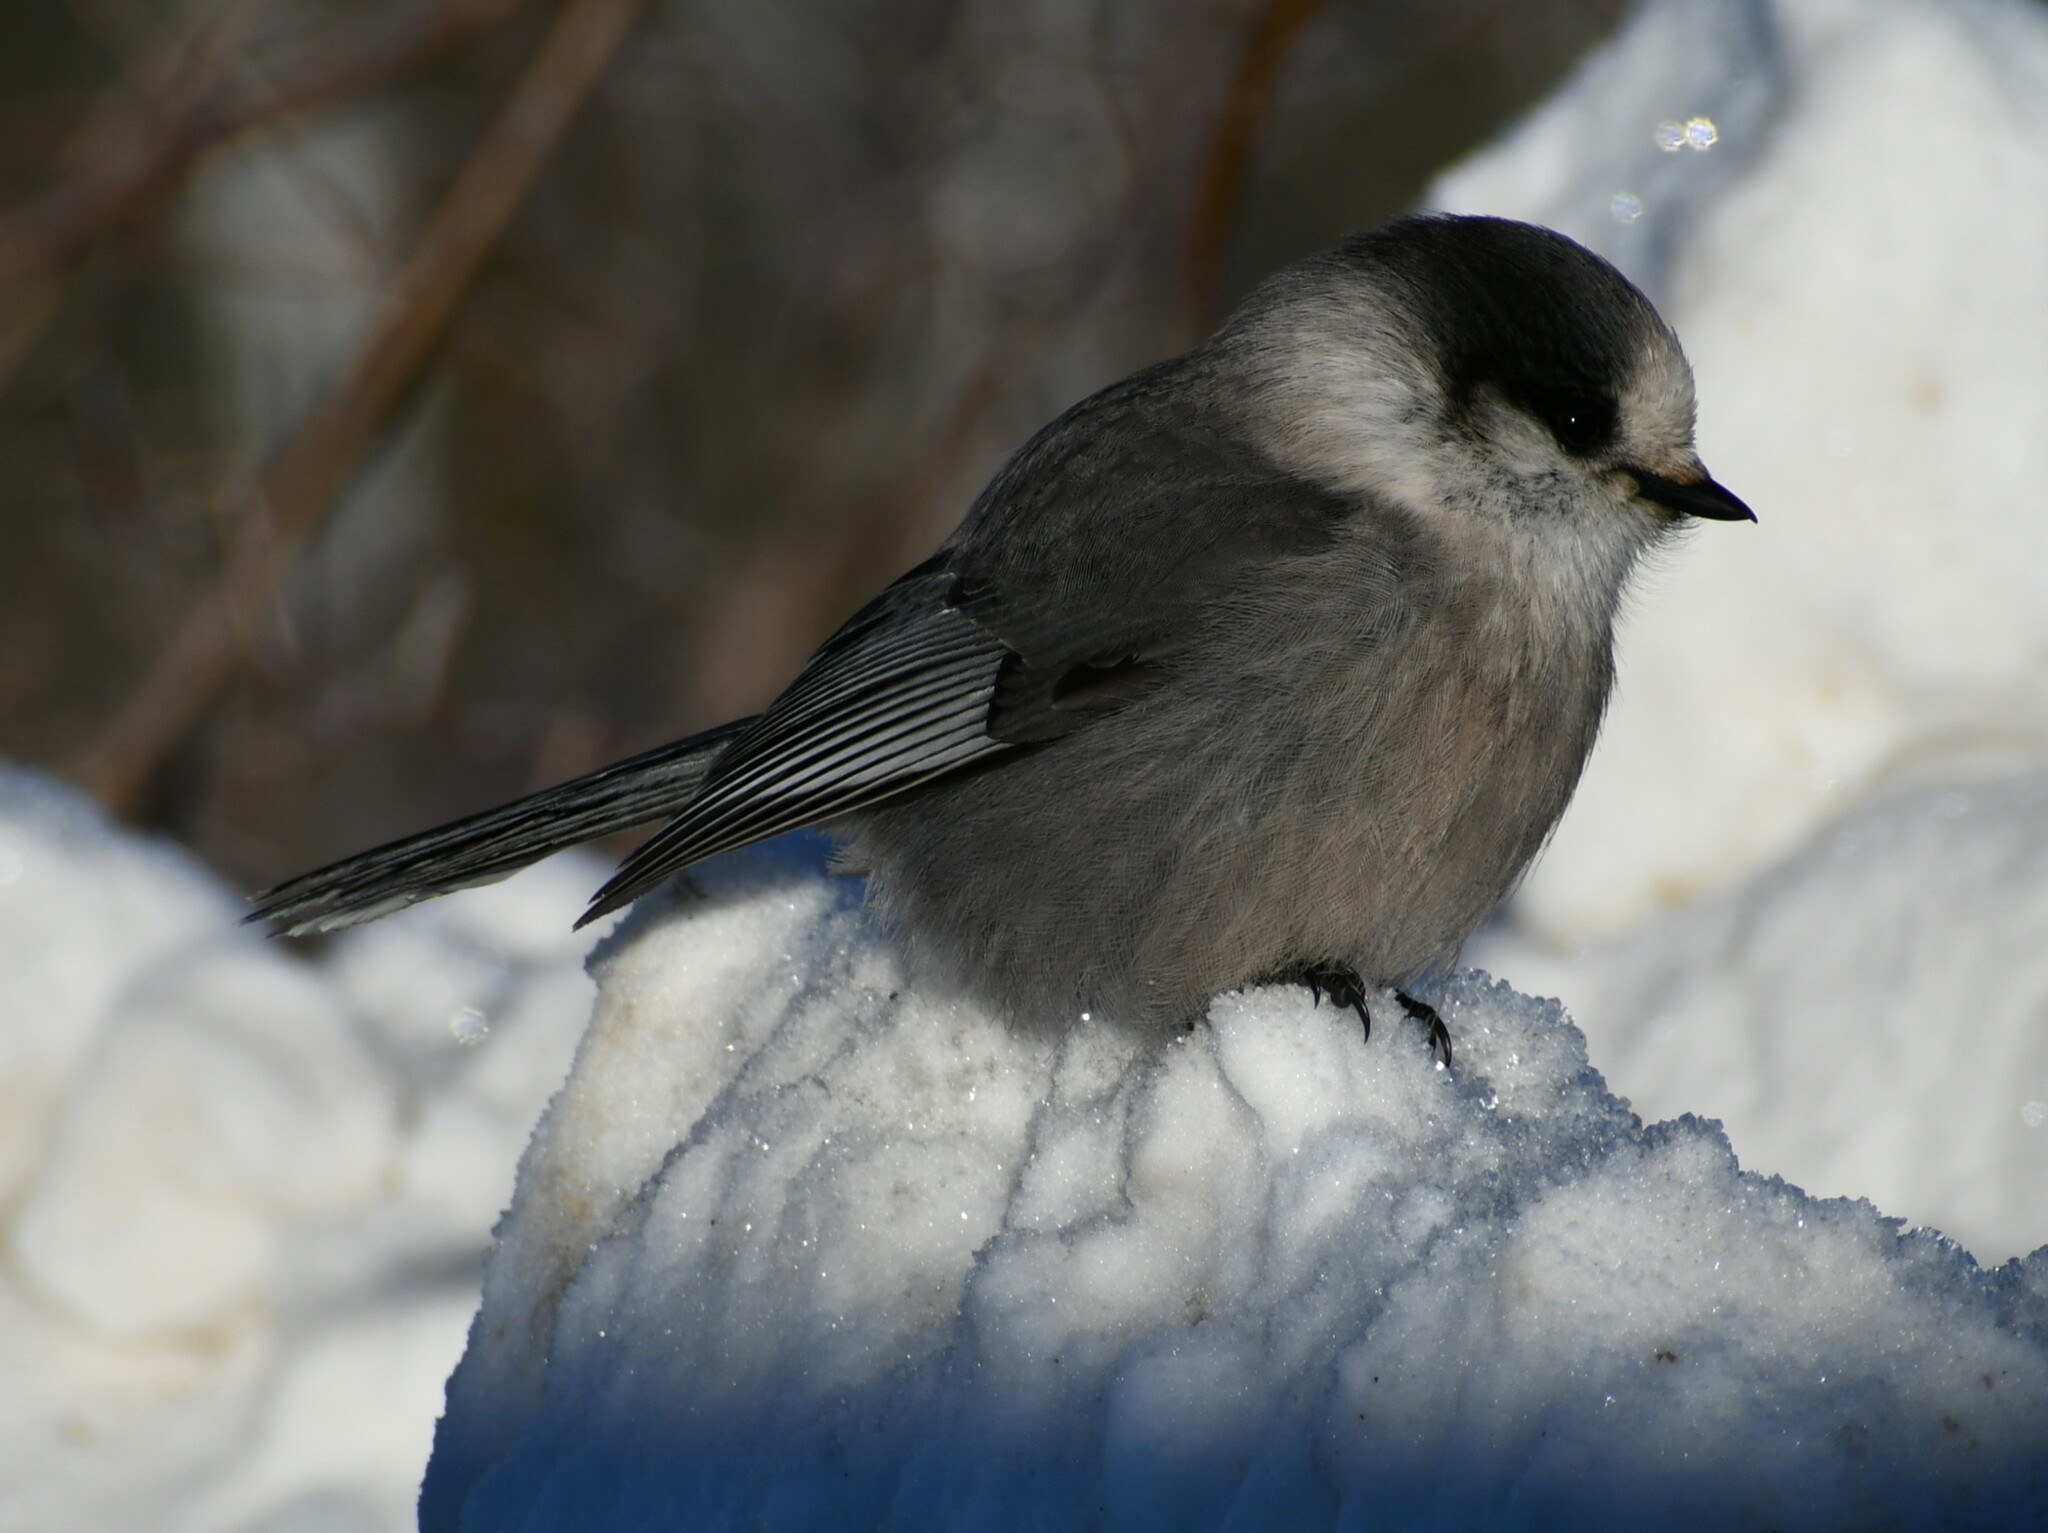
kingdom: Animalia
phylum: Chordata
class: Aves
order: Passeriformes
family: Corvidae
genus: Perisoreus
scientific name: Perisoreus canadensis
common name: Gray jay
